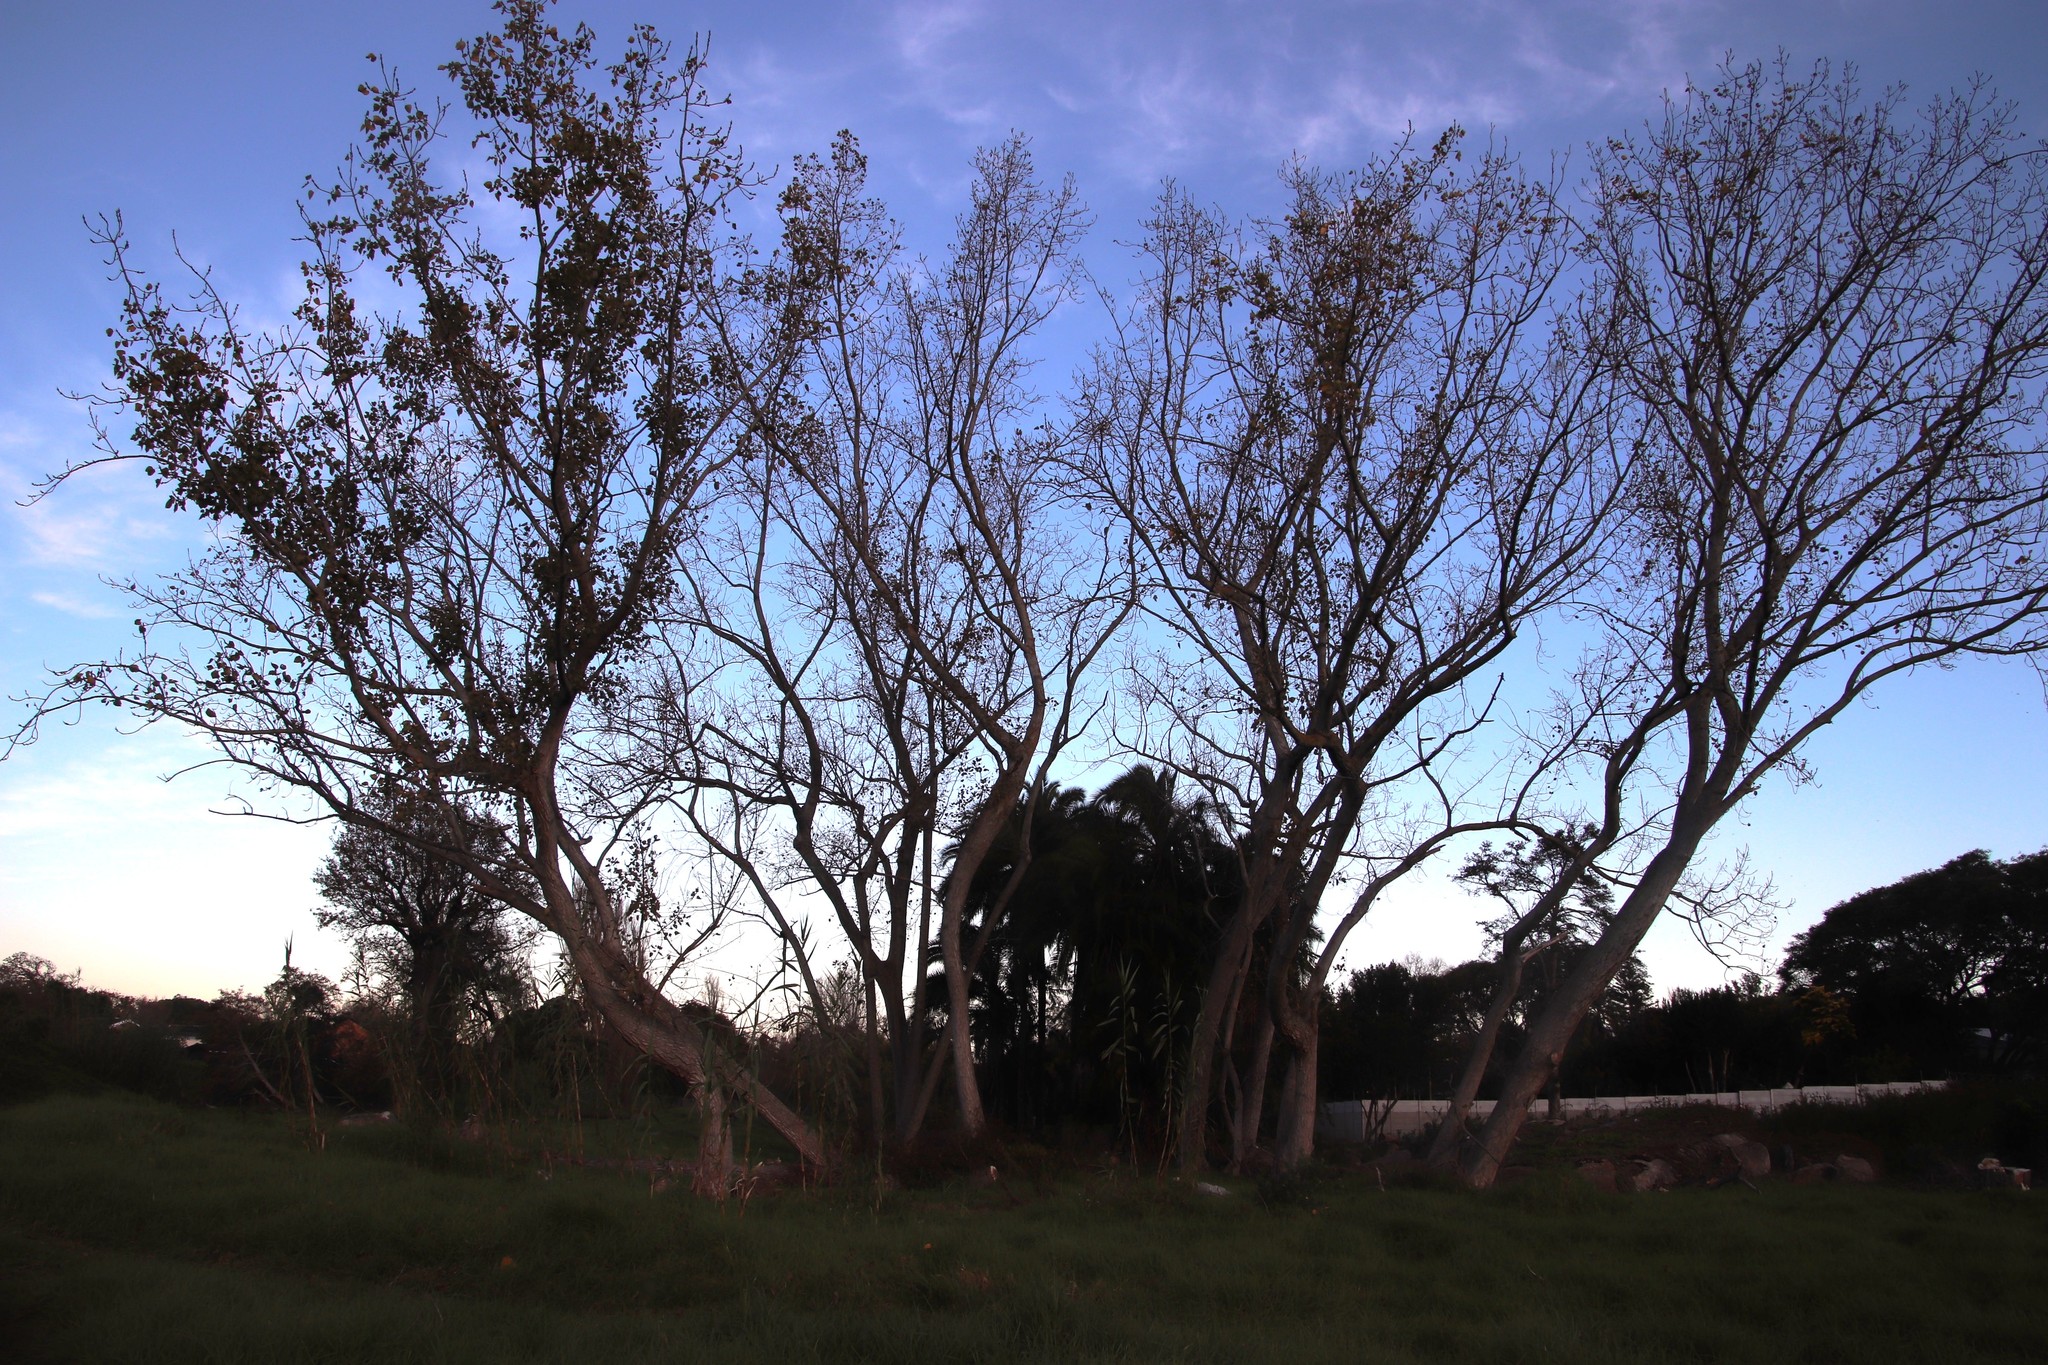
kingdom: Plantae
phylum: Tracheophyta
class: Magnoliopsida
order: Malpighiales
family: Salicaceae
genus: Populus
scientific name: Populus deltoides
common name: Eastern cottonwood
